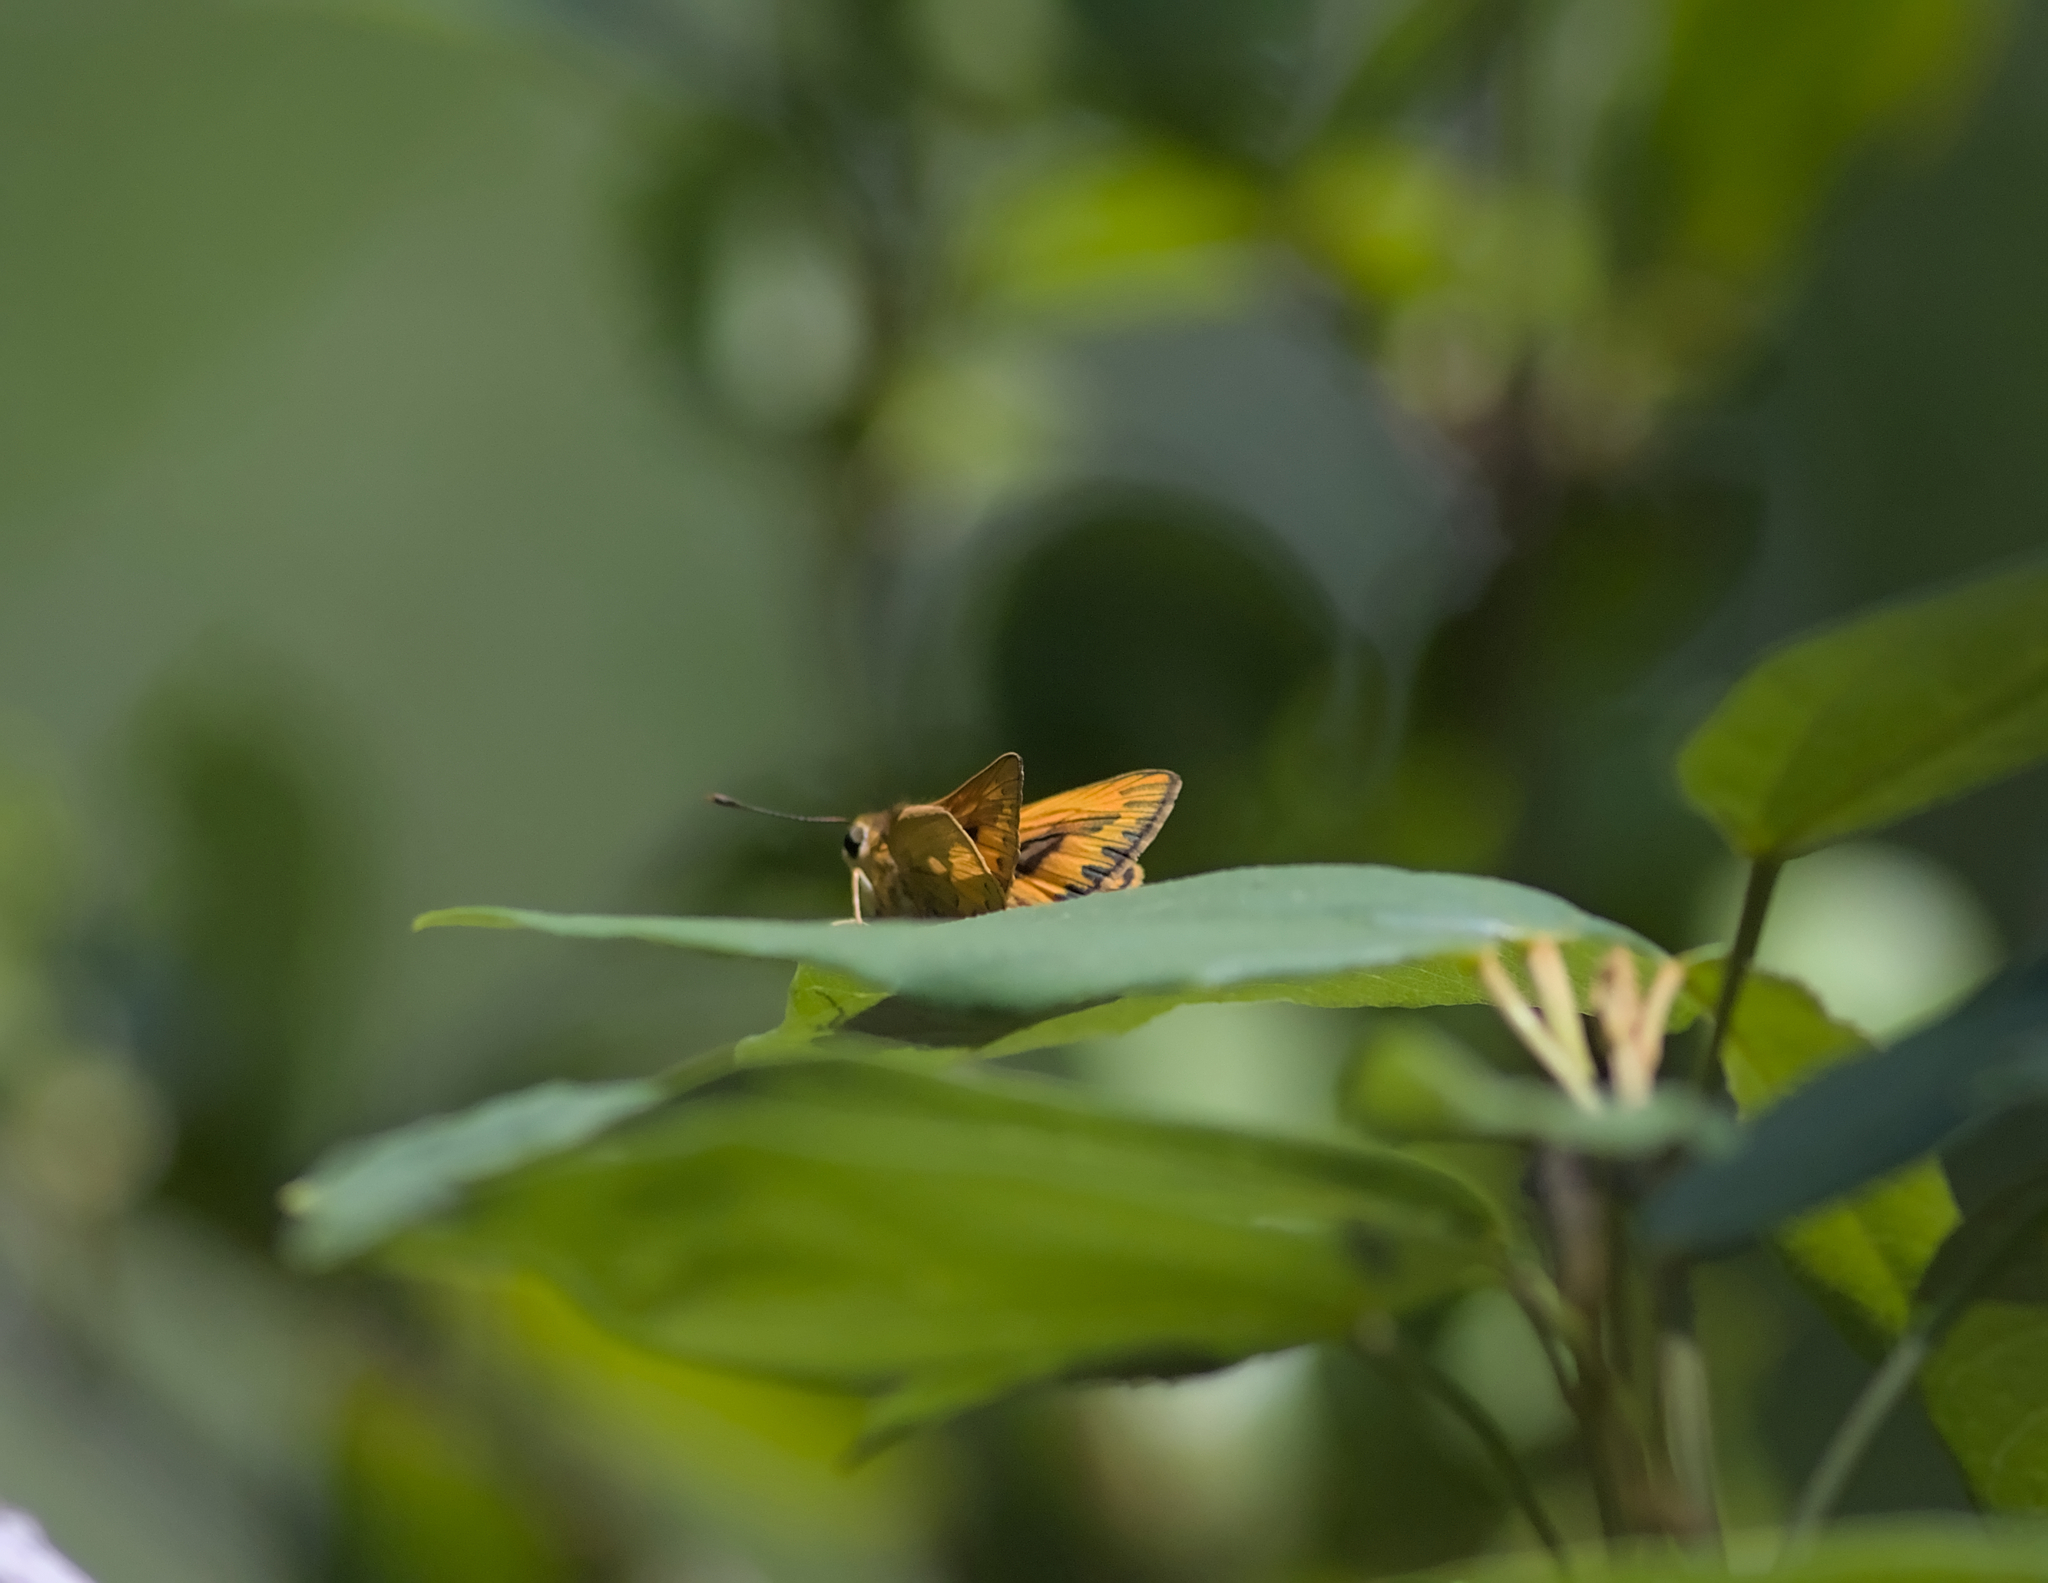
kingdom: Animalia
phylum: Arthropoda
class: Insecta
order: Lepidoptera
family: Hesperiidae
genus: Telicota
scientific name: Telicota colon
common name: Pale palm dart
